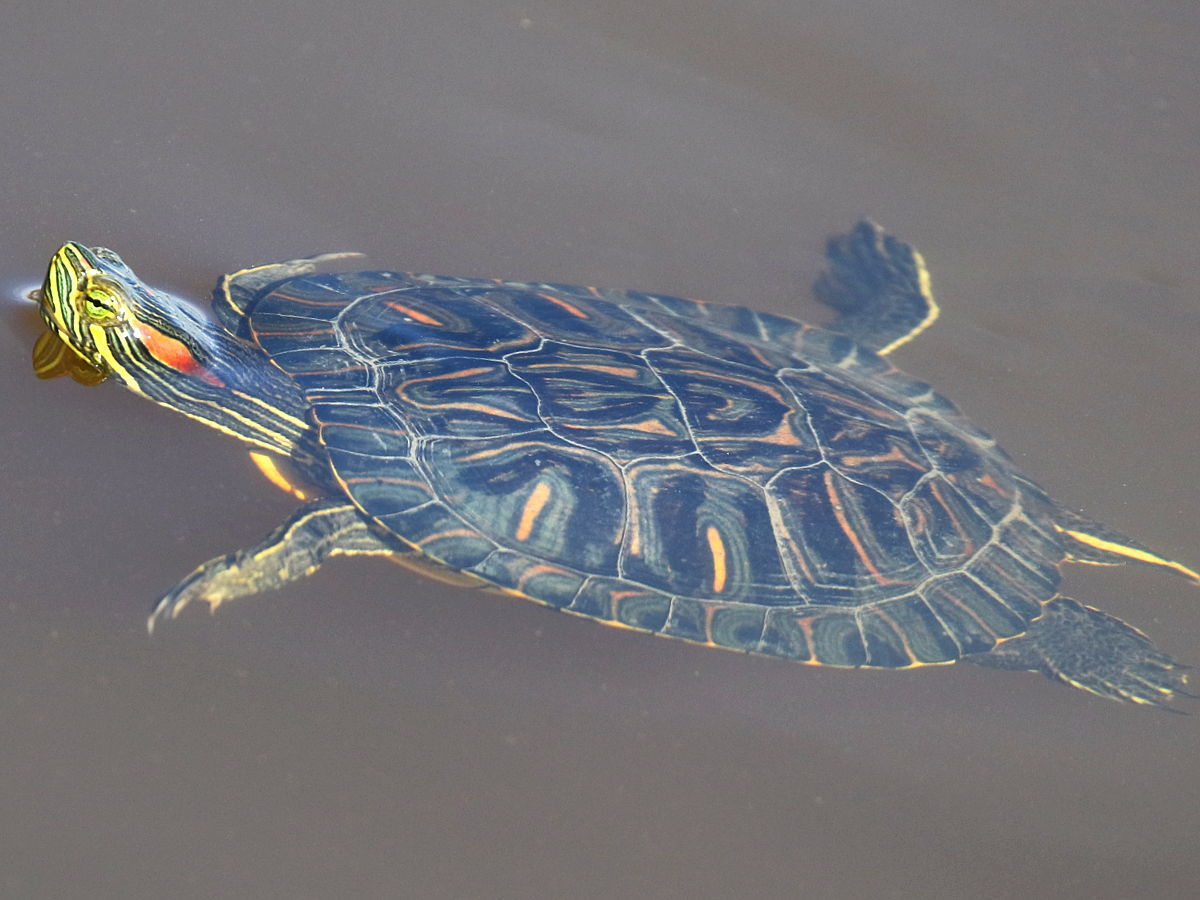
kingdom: Animalia
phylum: Chordata
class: Testudines
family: Emydidae
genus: Trachemys
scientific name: Trachemys scripta
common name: Slider
